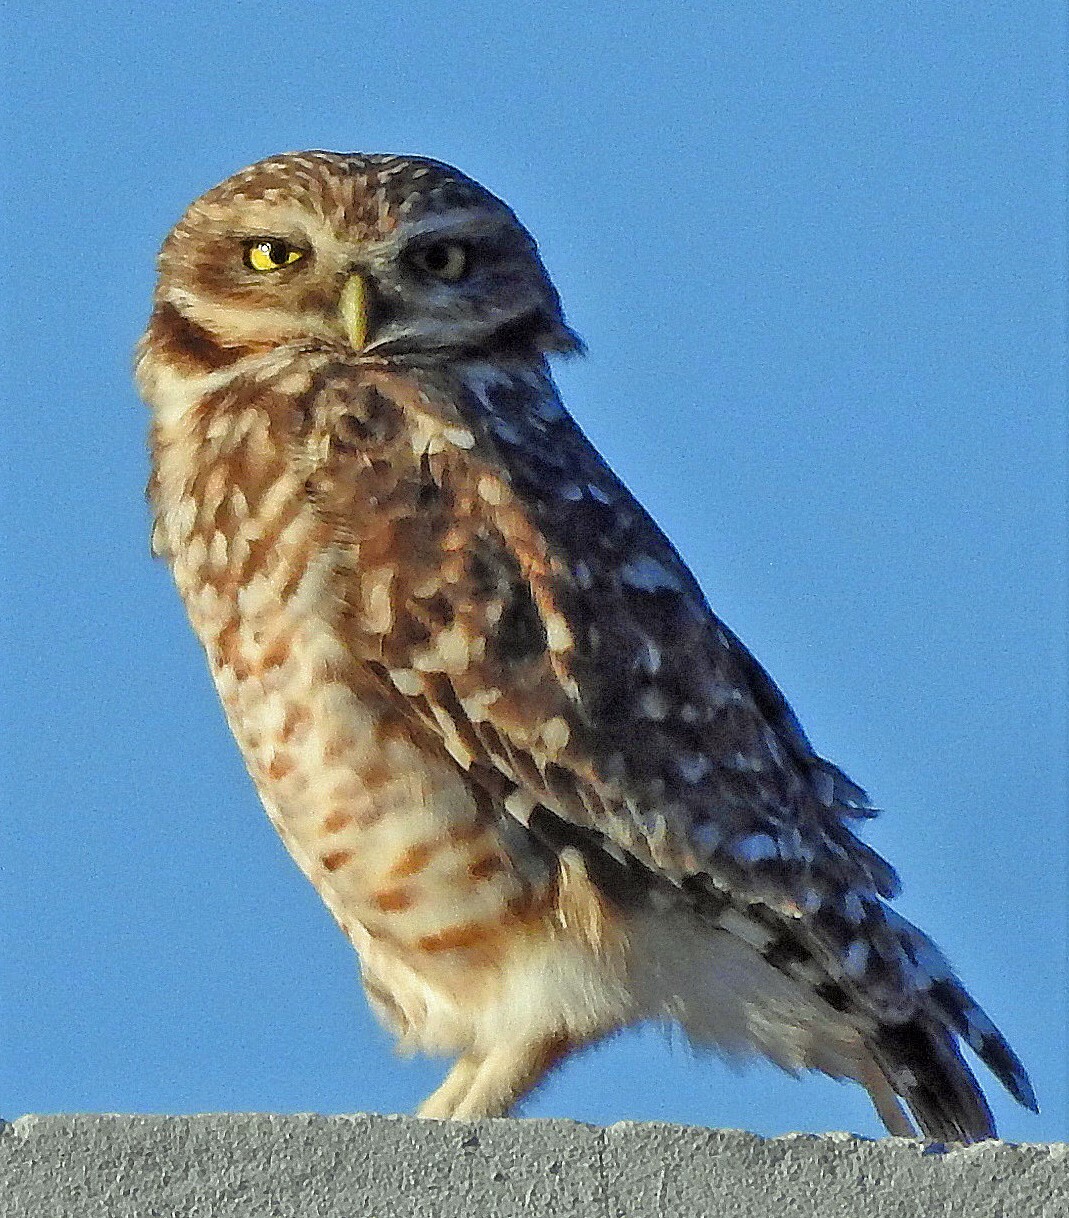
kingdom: Animalia
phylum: Chordata
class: Aves
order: Strigiformes
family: Strigidae
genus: Athene
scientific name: Athene cunicularia
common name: Burrowing owl
